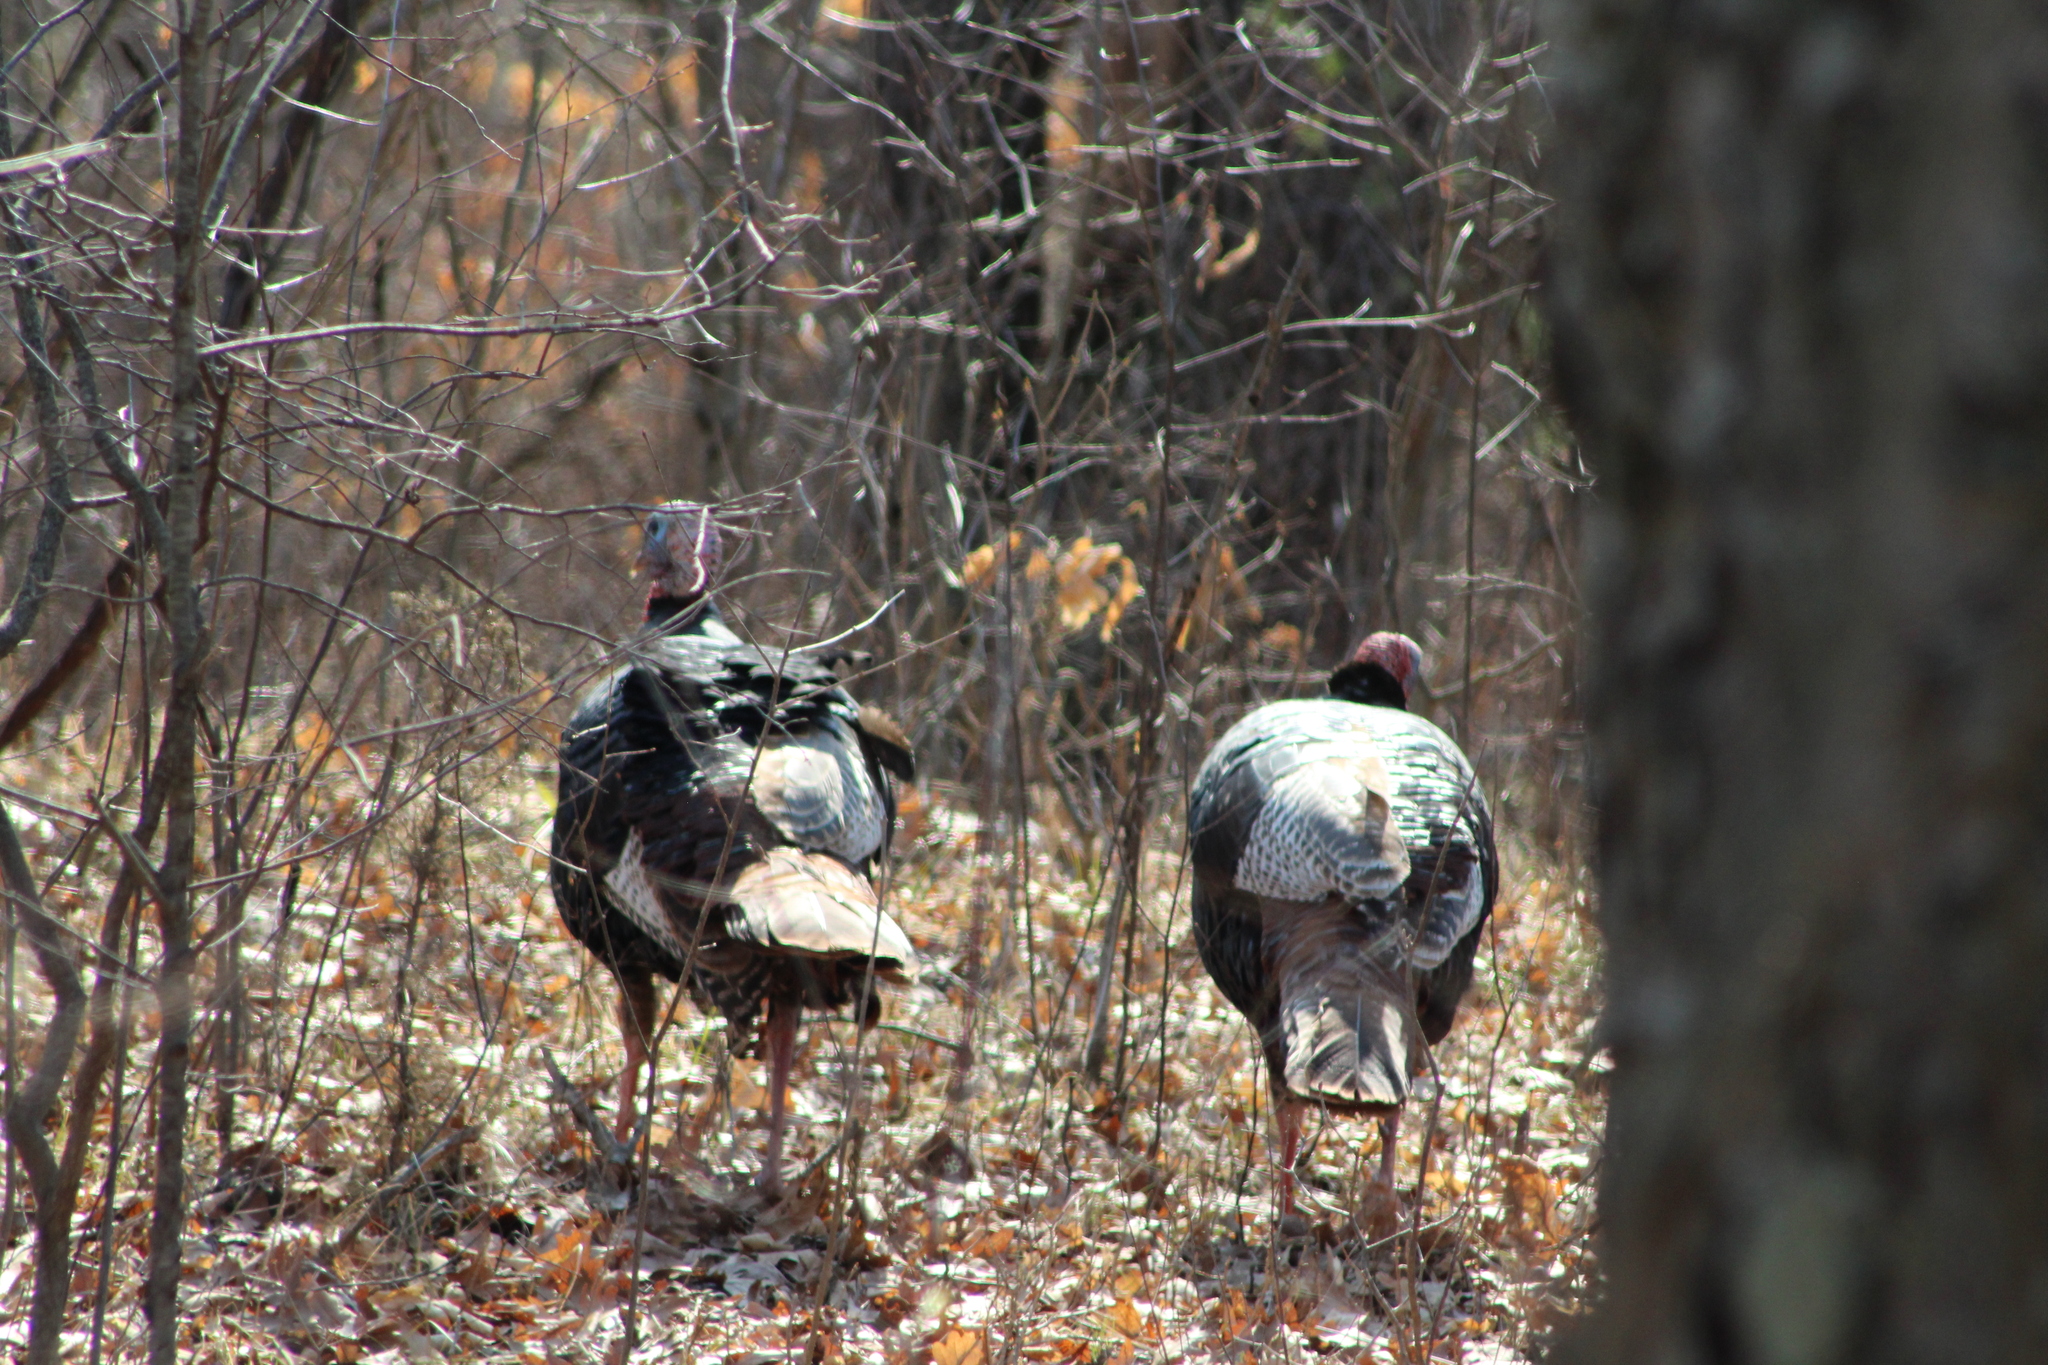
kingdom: Animalia
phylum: Chordata
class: Aves
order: Galliformes
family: Phasianidae
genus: Meleagris
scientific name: Meleagris gallopavo
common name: Wild turkey
